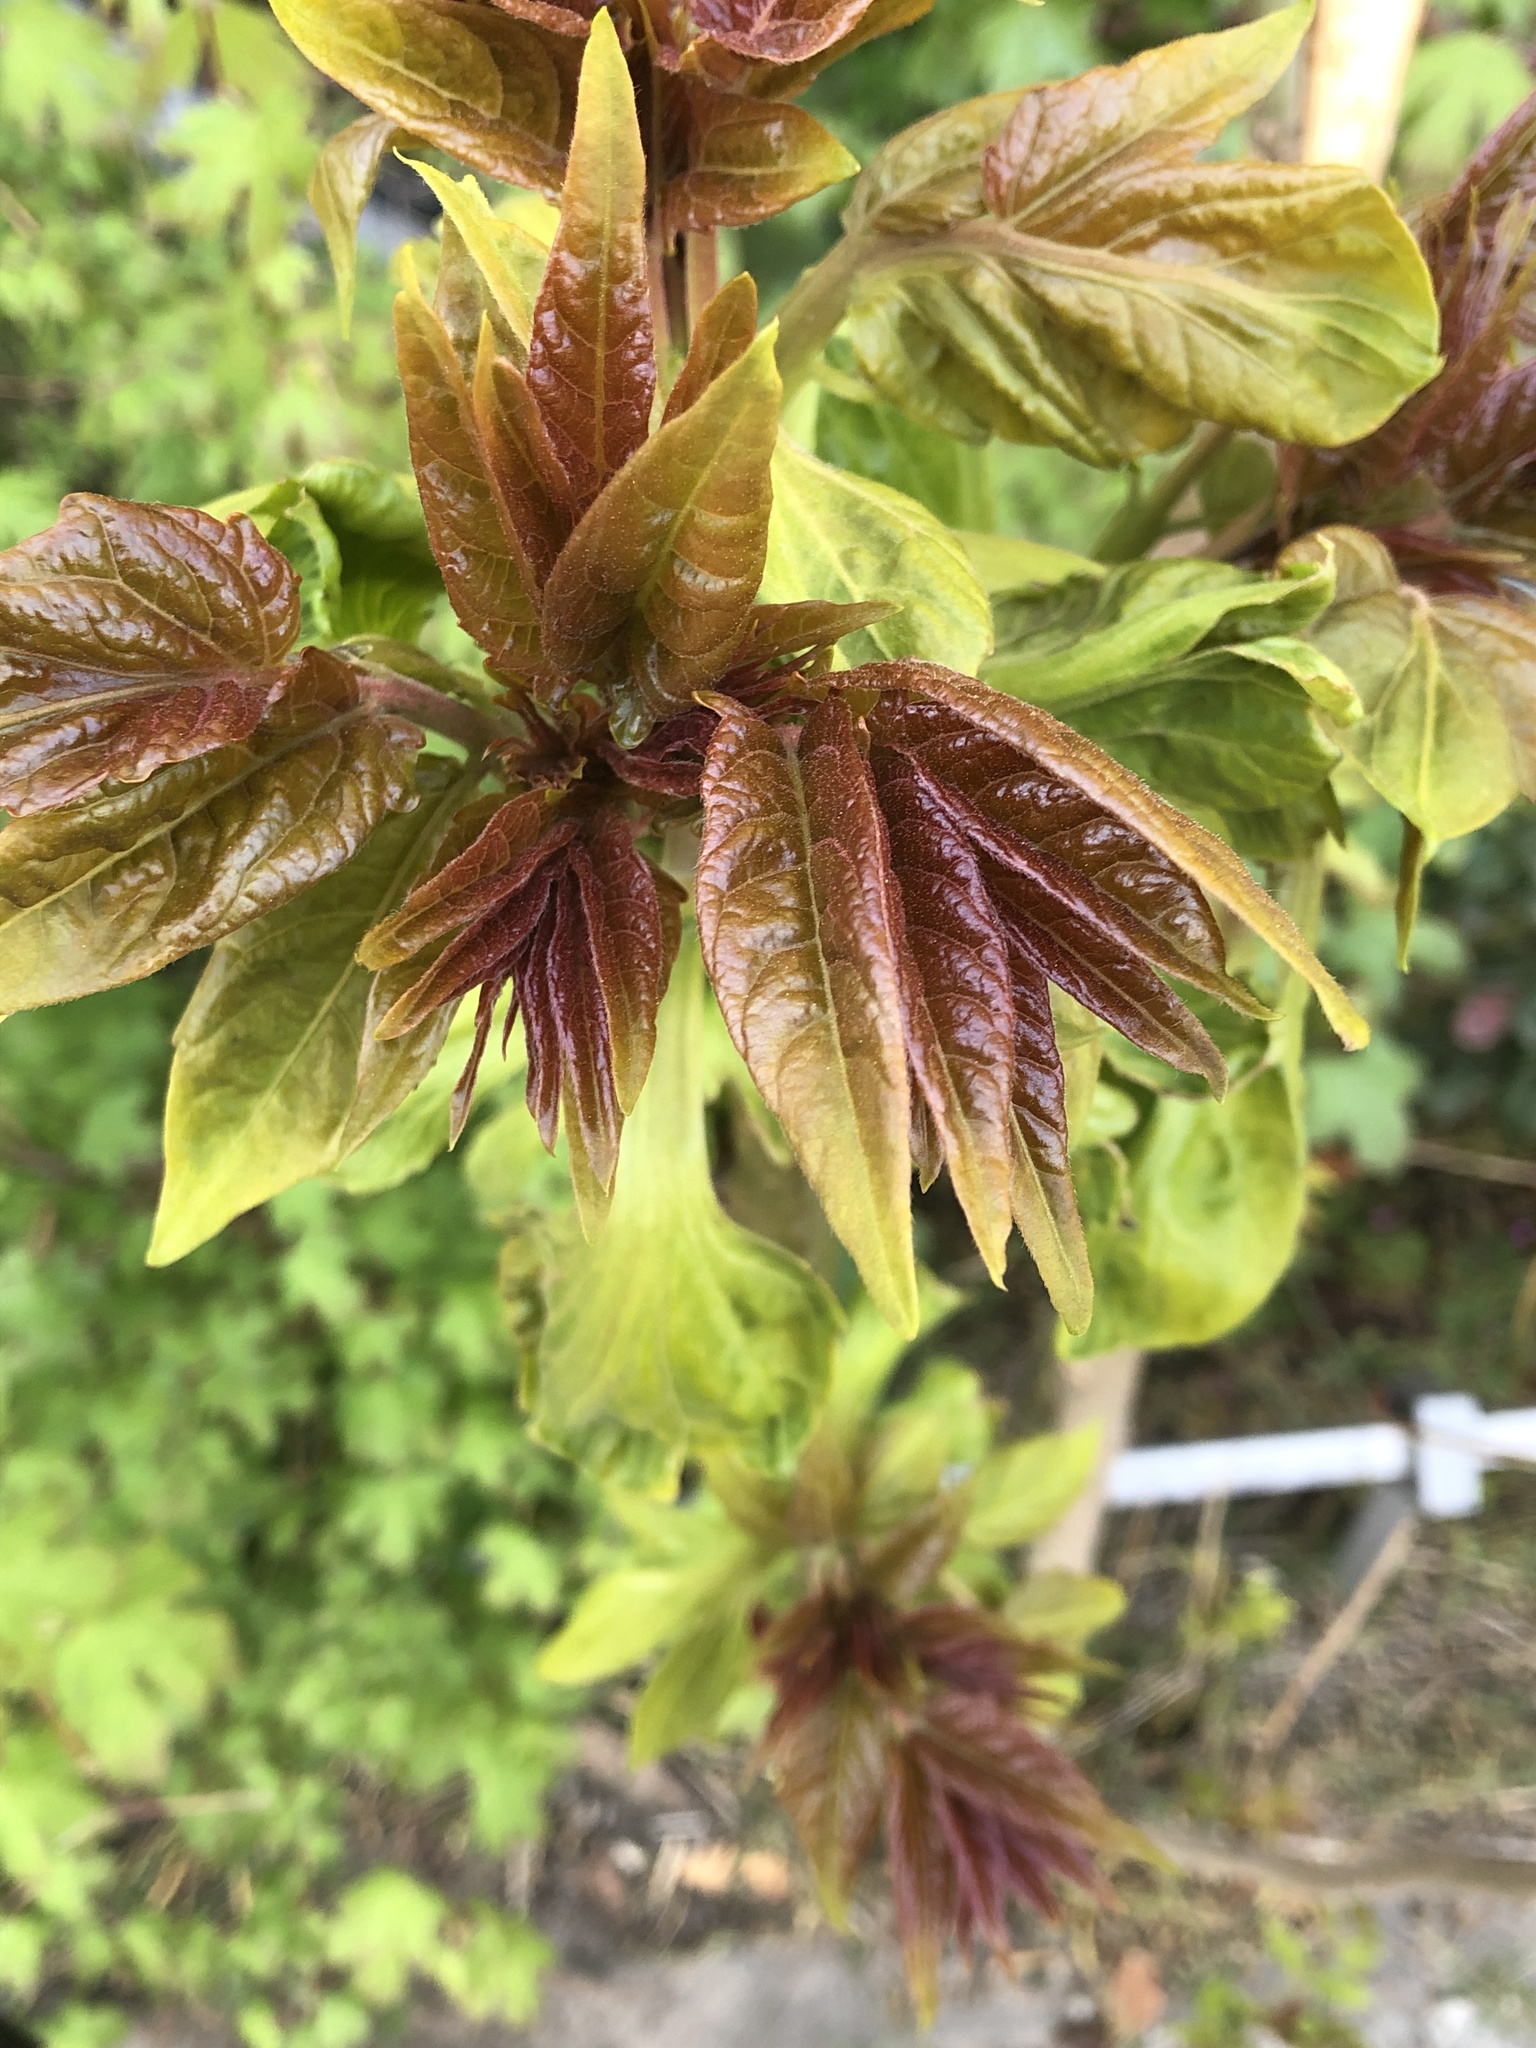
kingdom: Plantae
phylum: Tracheophyta
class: Magnoliopsida
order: Sapindales
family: Simaroubaceae
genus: Ailanthus
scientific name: Ailanthus altissima
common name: Tree-of-heaven
